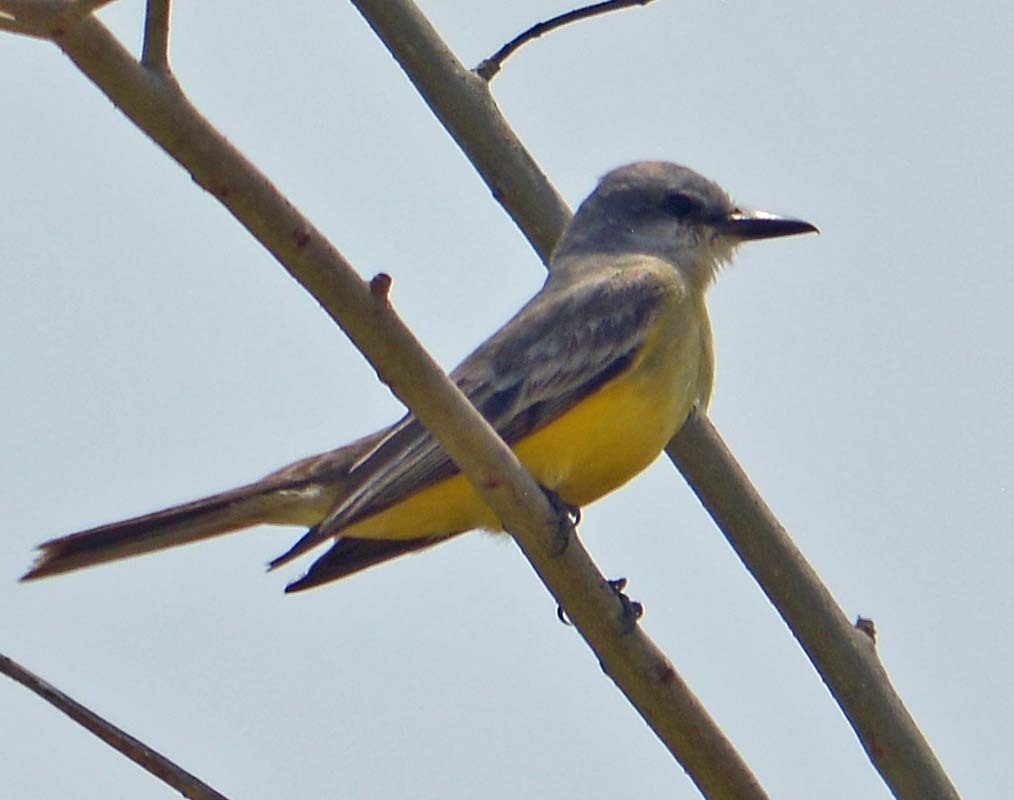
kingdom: Animalia
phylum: Chordata
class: Aves
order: Passeriformes
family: Tyrannidae
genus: Tyrannus
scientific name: Tyrannus melancholicus
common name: Tropical kingbird
